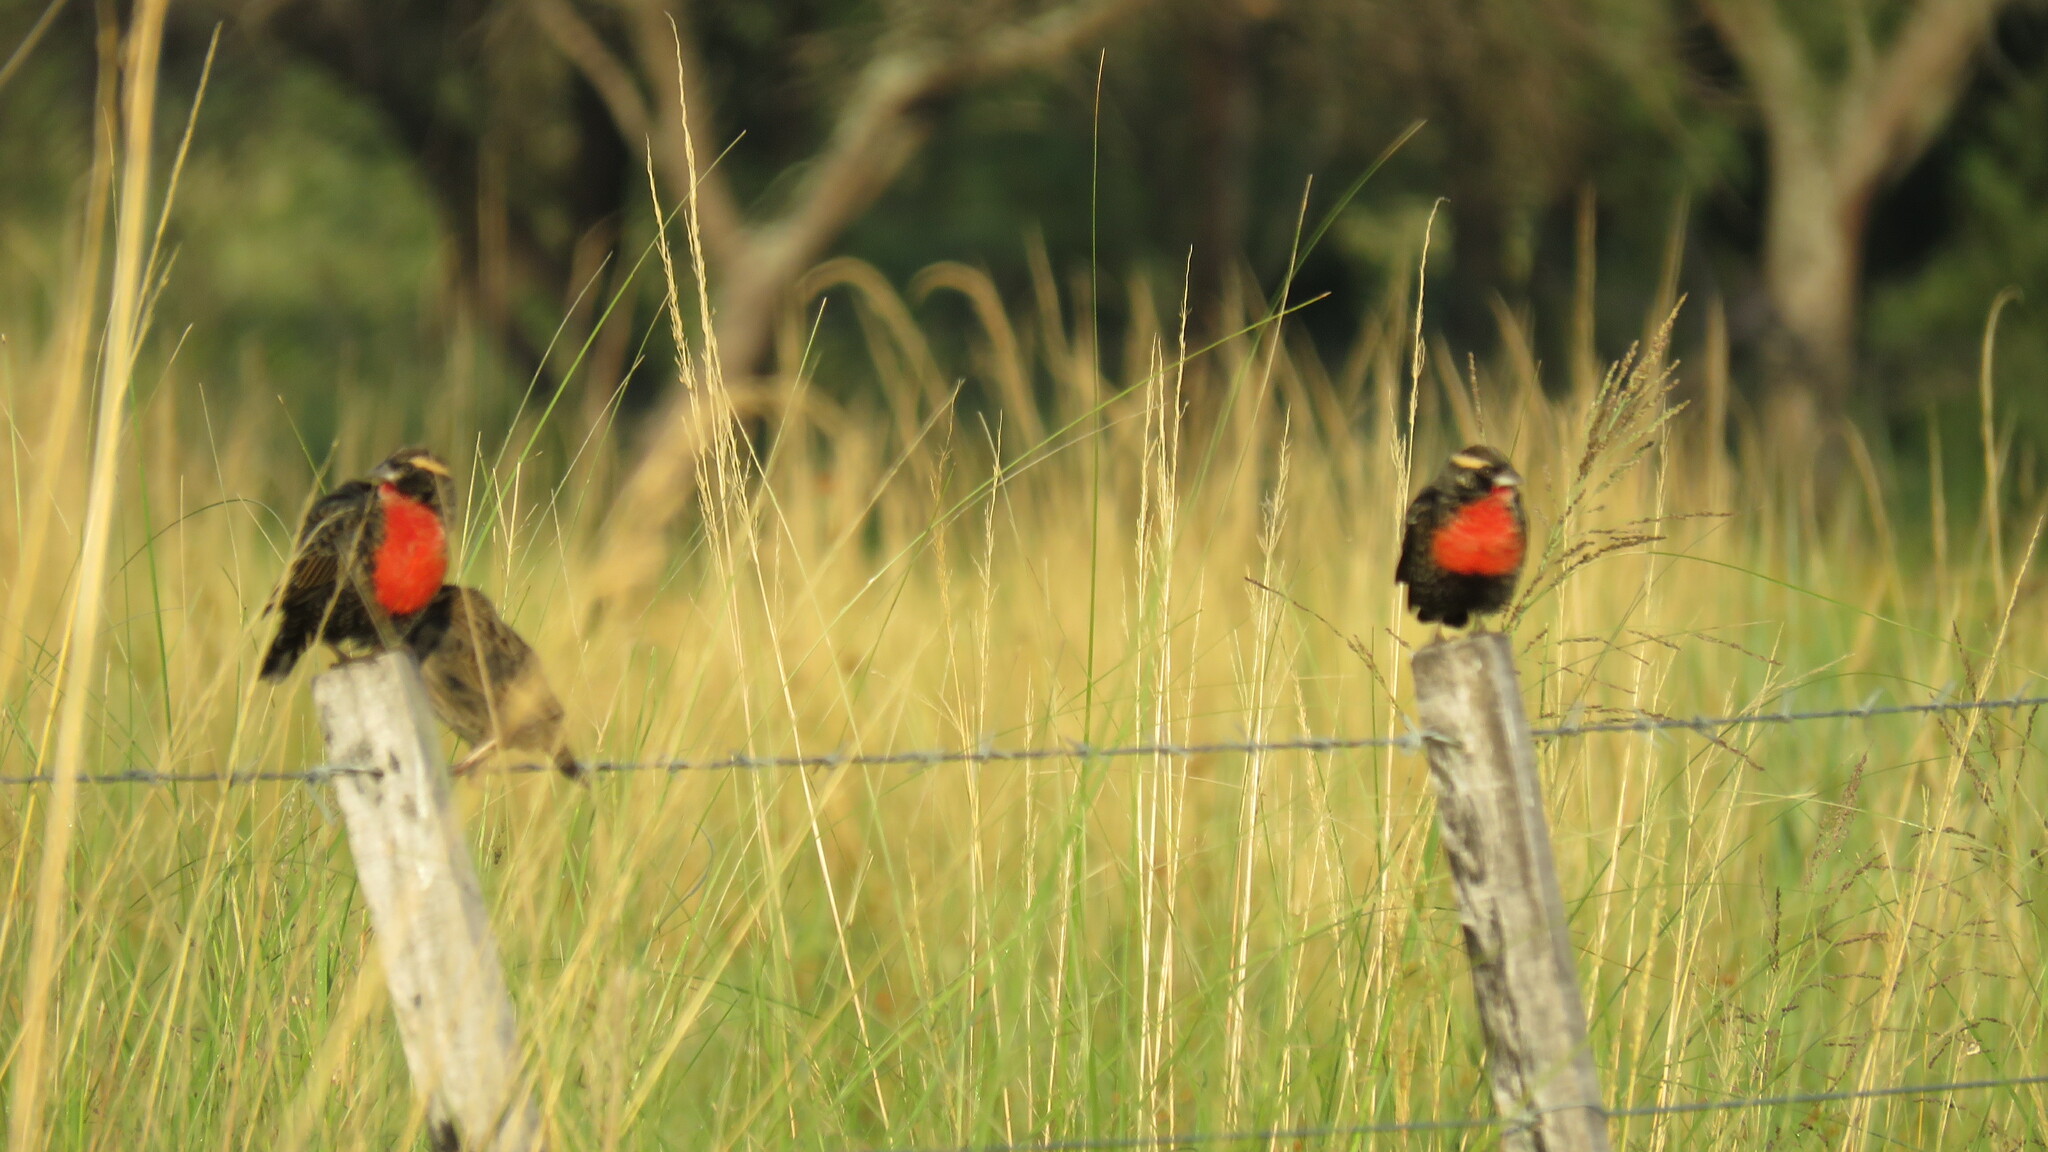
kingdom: Animalia
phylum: Chordata
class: Aves
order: Passeriformes
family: Icteridae
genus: Sturnella
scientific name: Sturnella superciliaris
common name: White-browed blackbird
